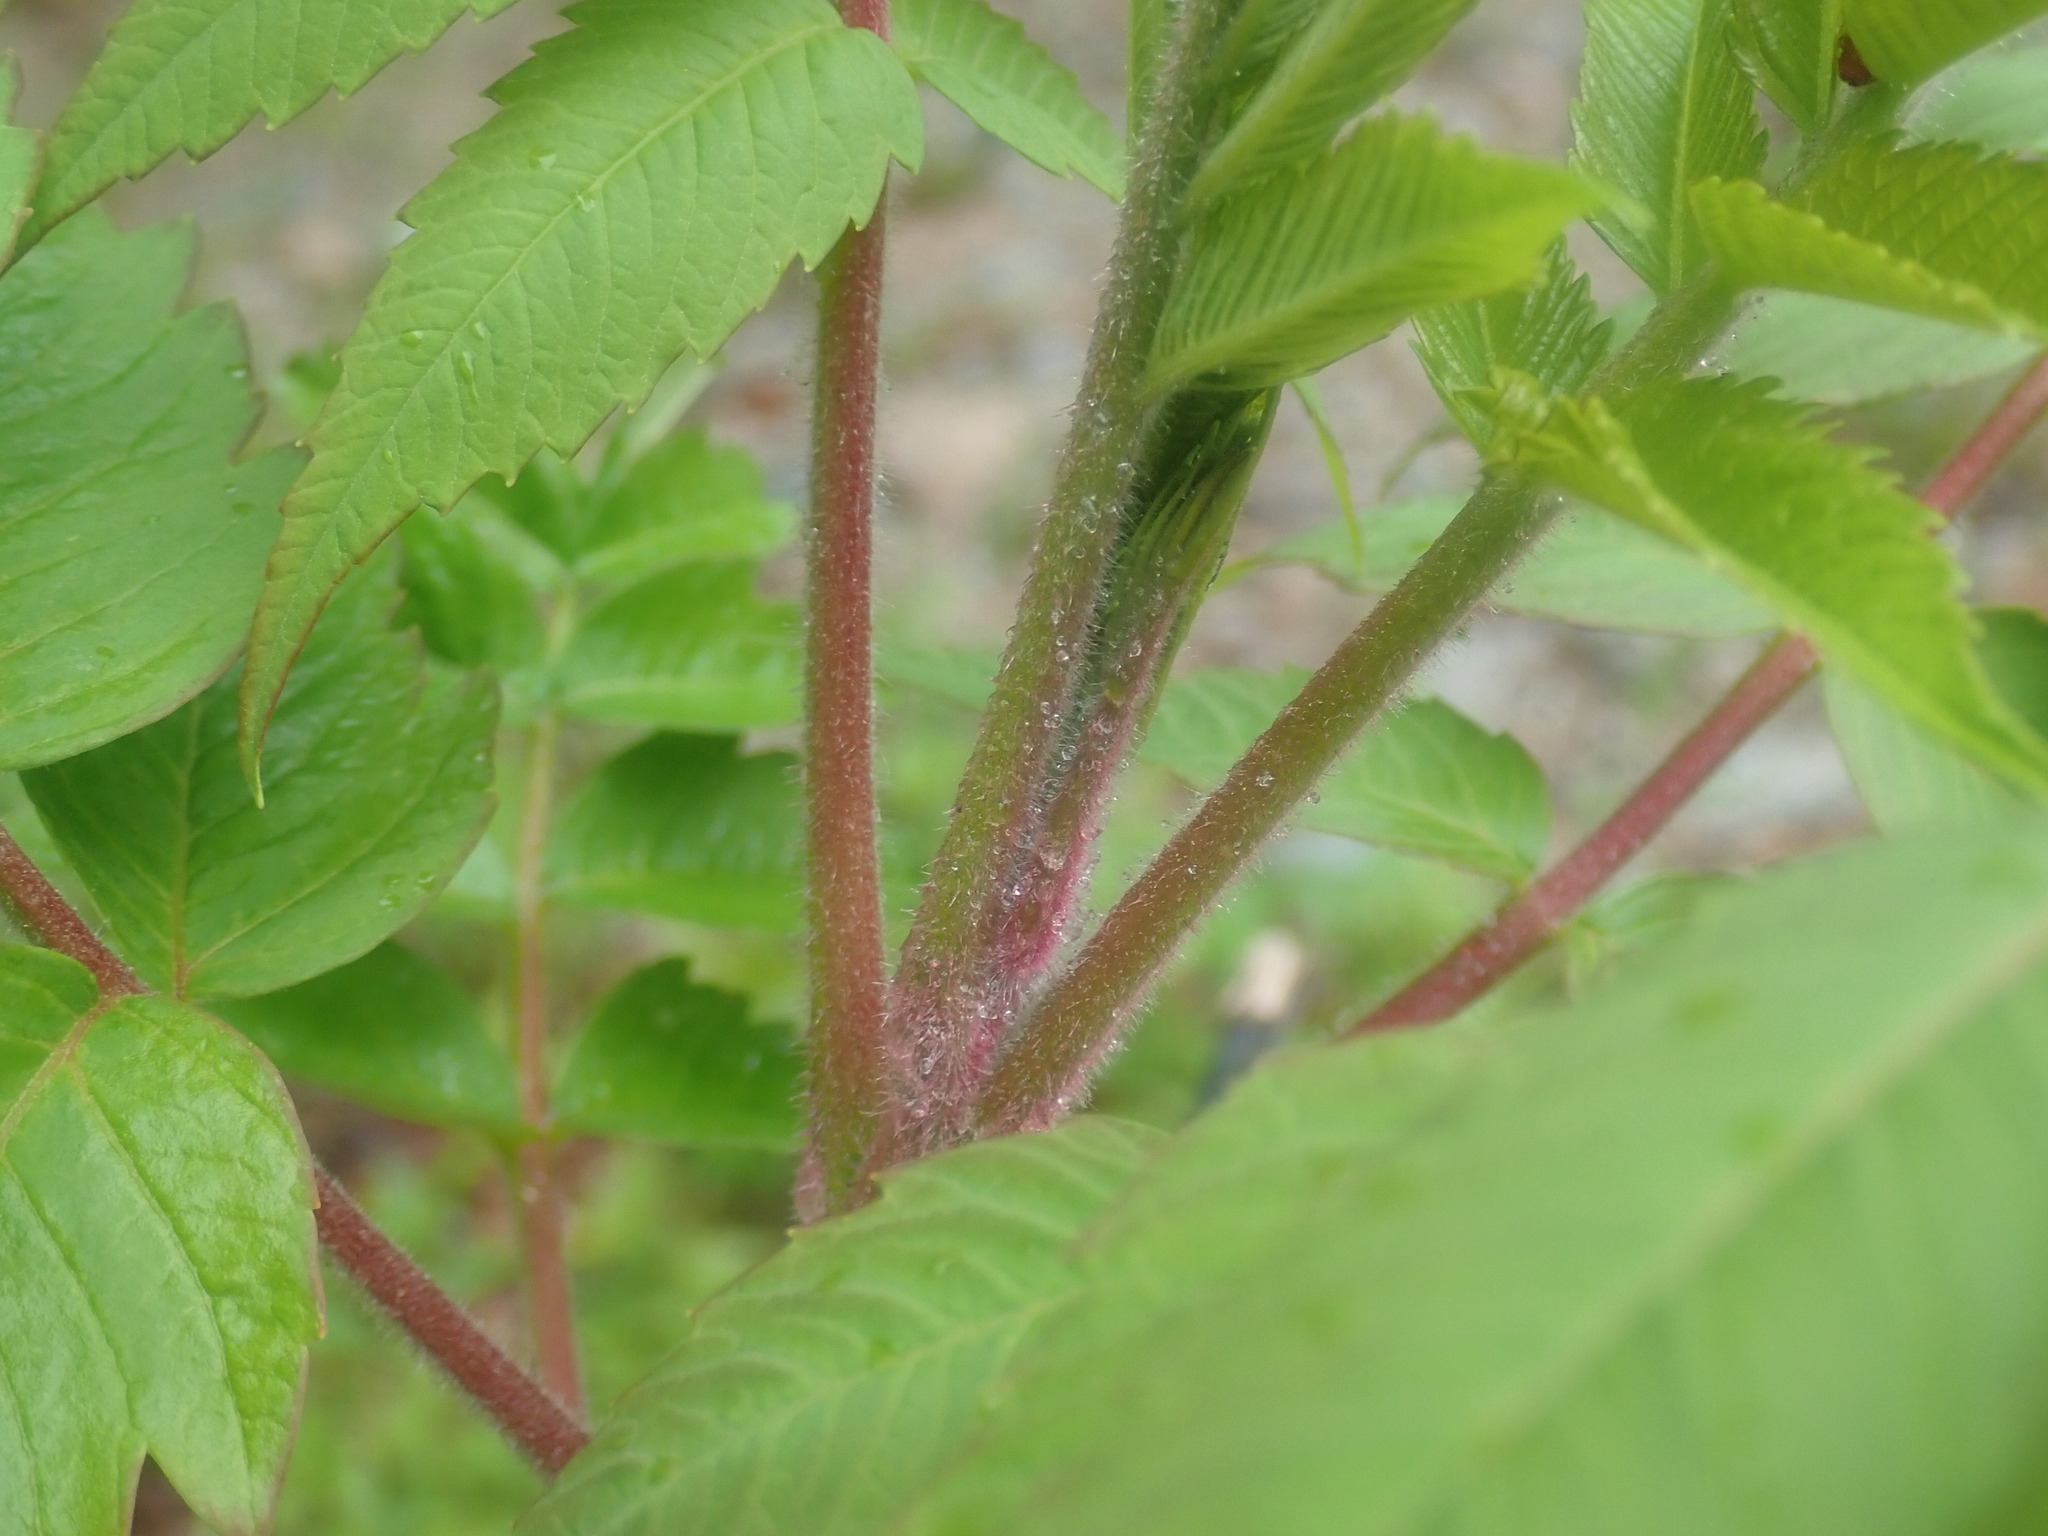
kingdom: Plantae
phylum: Tracheophyta
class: Magnoliopsida
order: Sapindales
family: Anacardiaceae
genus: Rhus
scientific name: Rhus typhina
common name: Staghorn sumac
